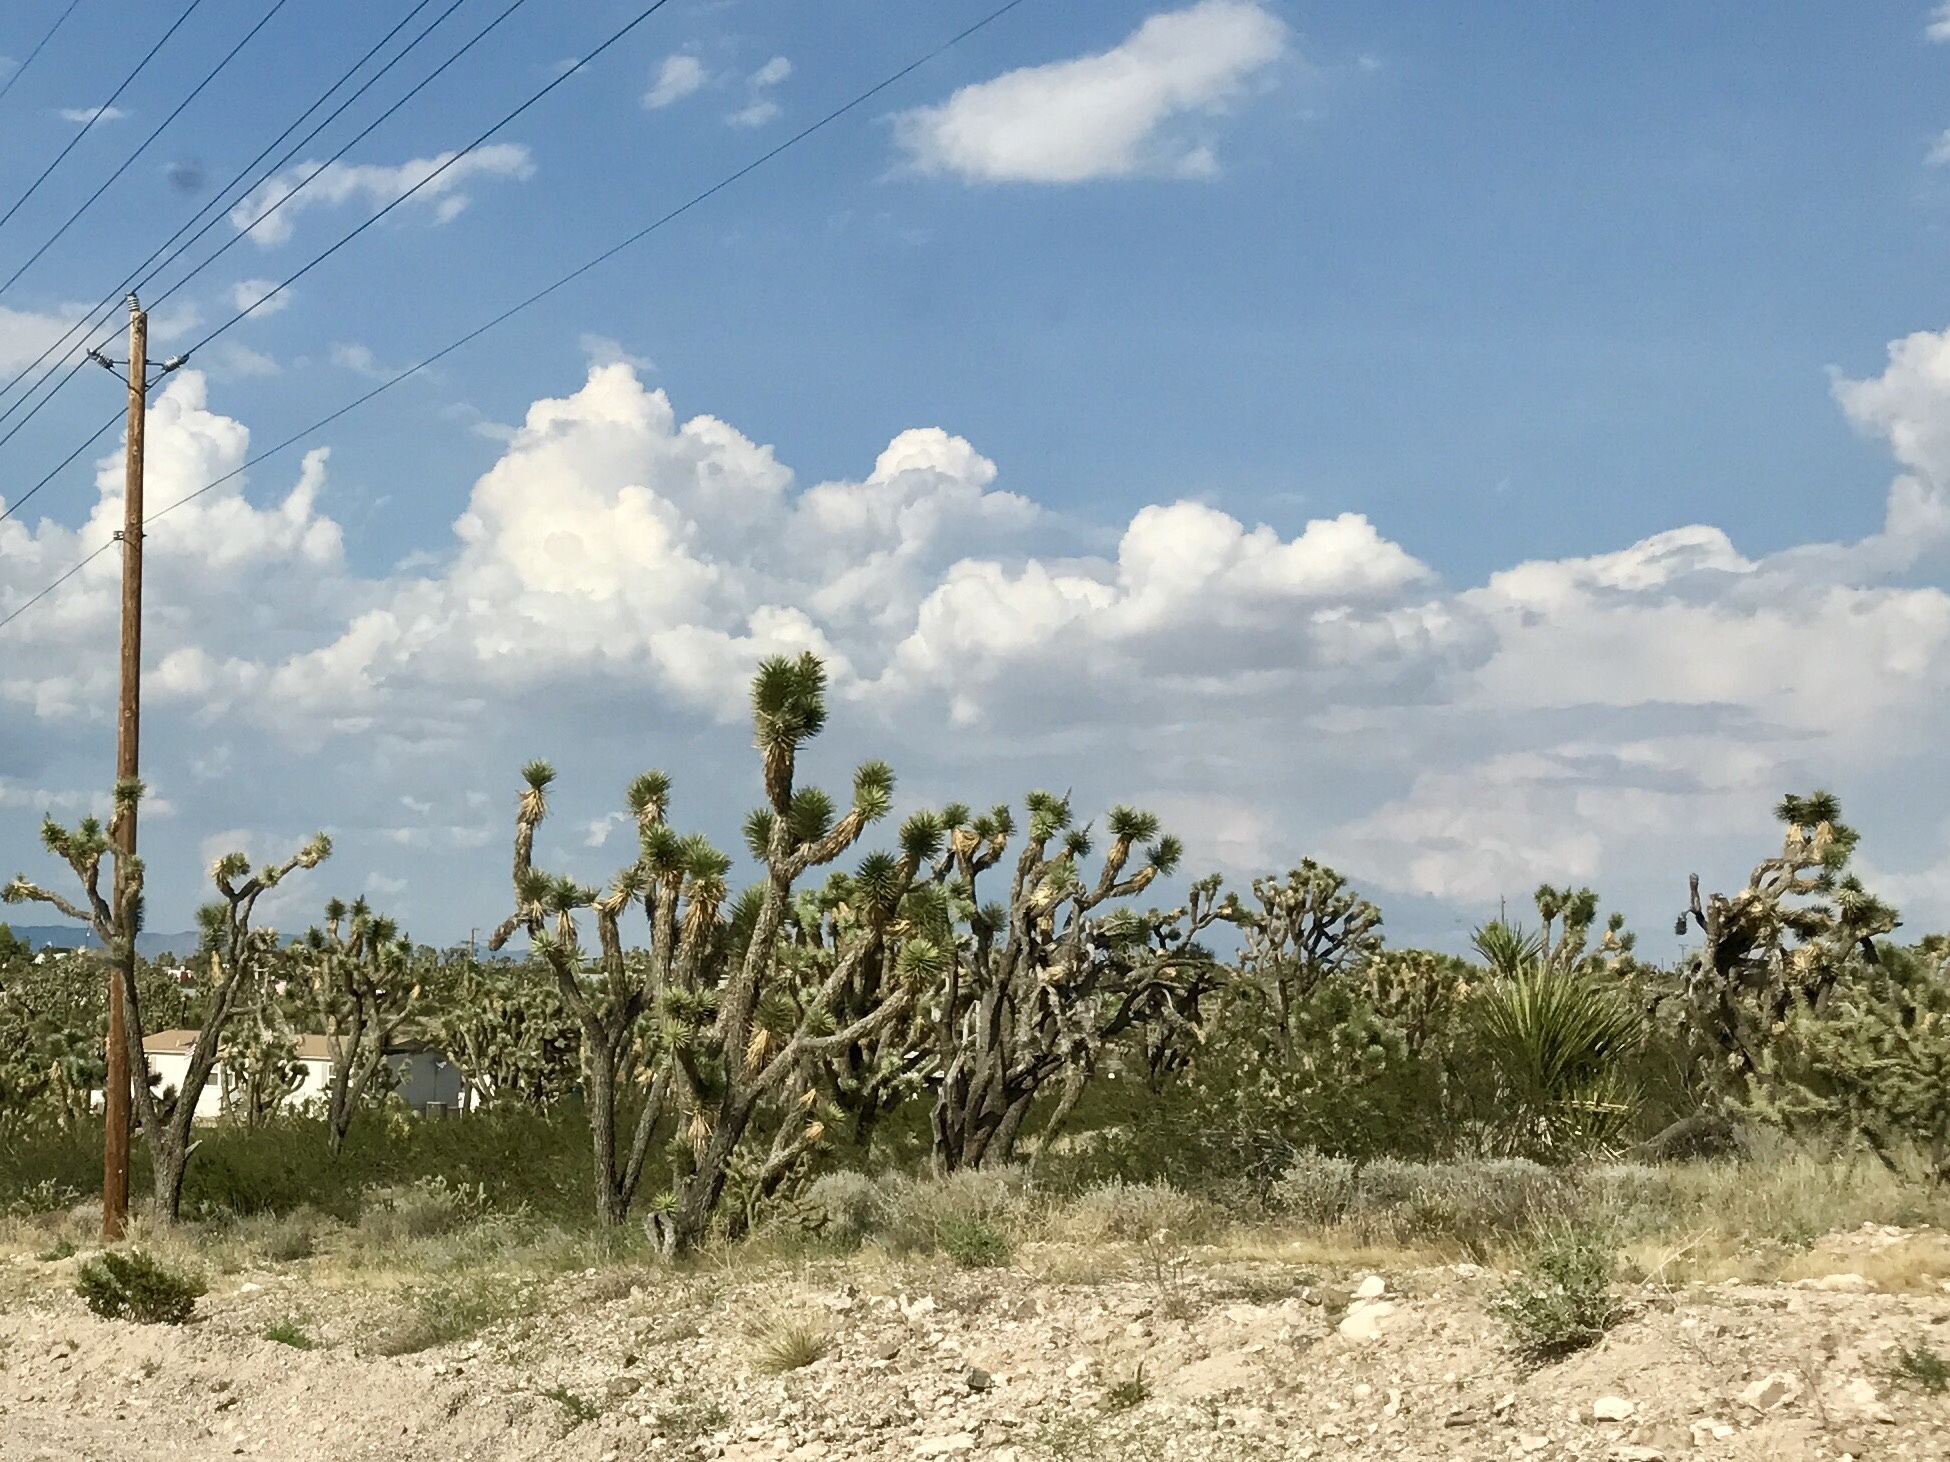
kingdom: Plantae
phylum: Tracheophyta
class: Liliopsida
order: Asparagales
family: Asparagaceae
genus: Yucca
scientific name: Yucca brevifolia
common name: Joshua tree
